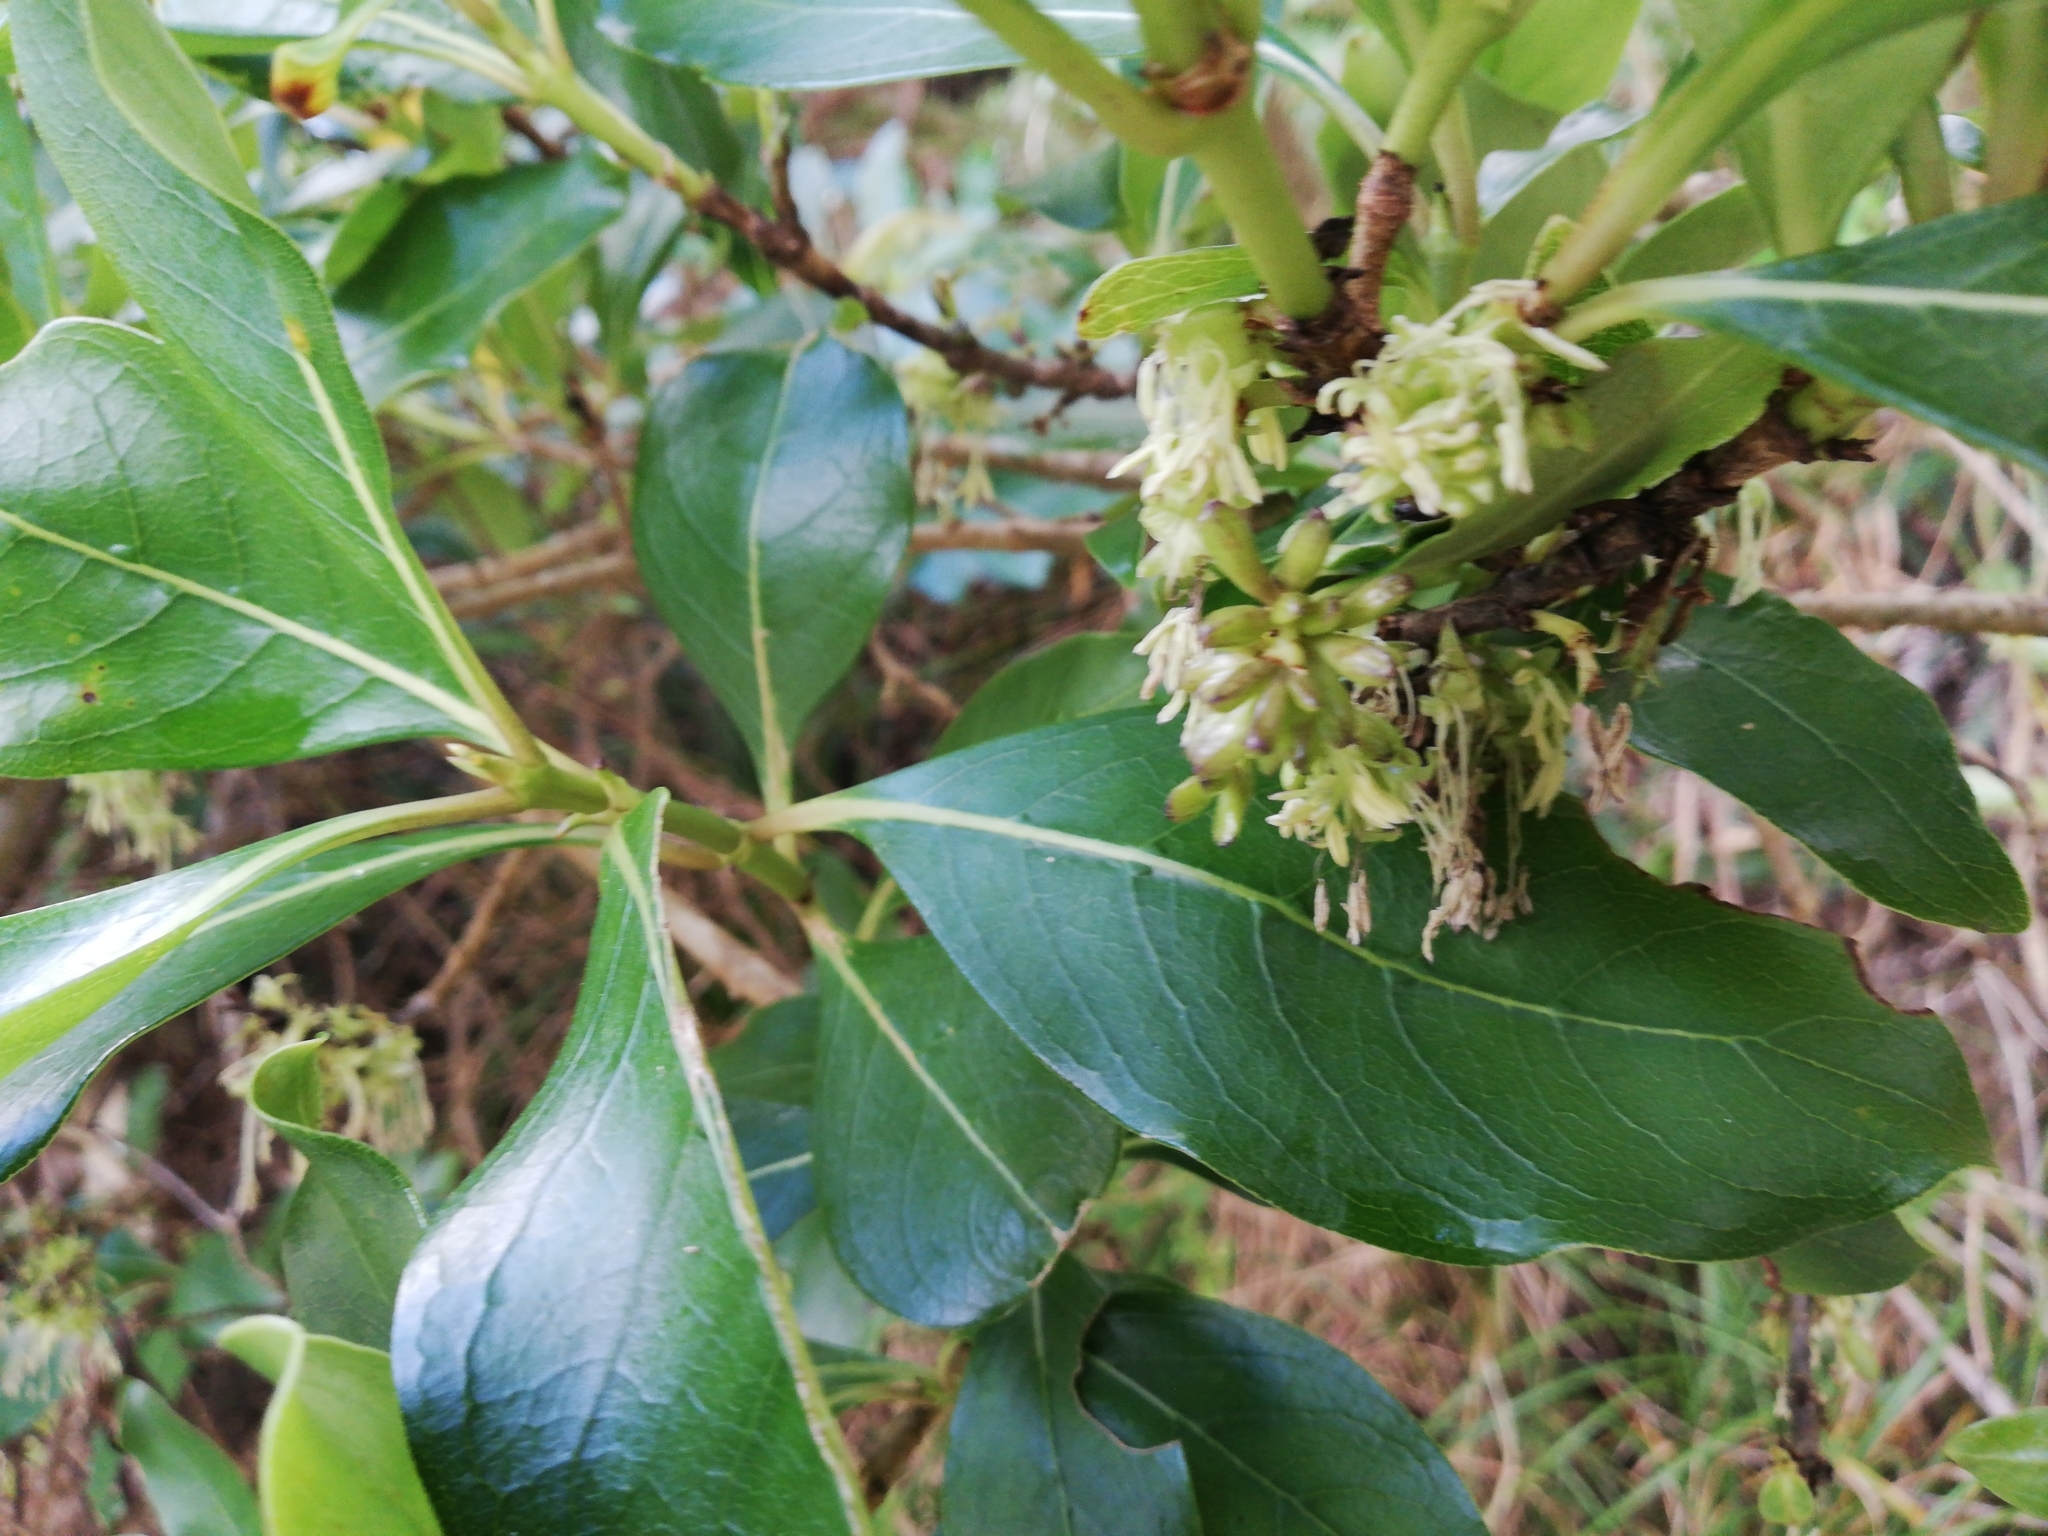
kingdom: Plantae
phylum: Tracheophyta
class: Magnoliopsida
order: Gentianales
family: Rubiaceae
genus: Coprosma
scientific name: Coprosma robusta
